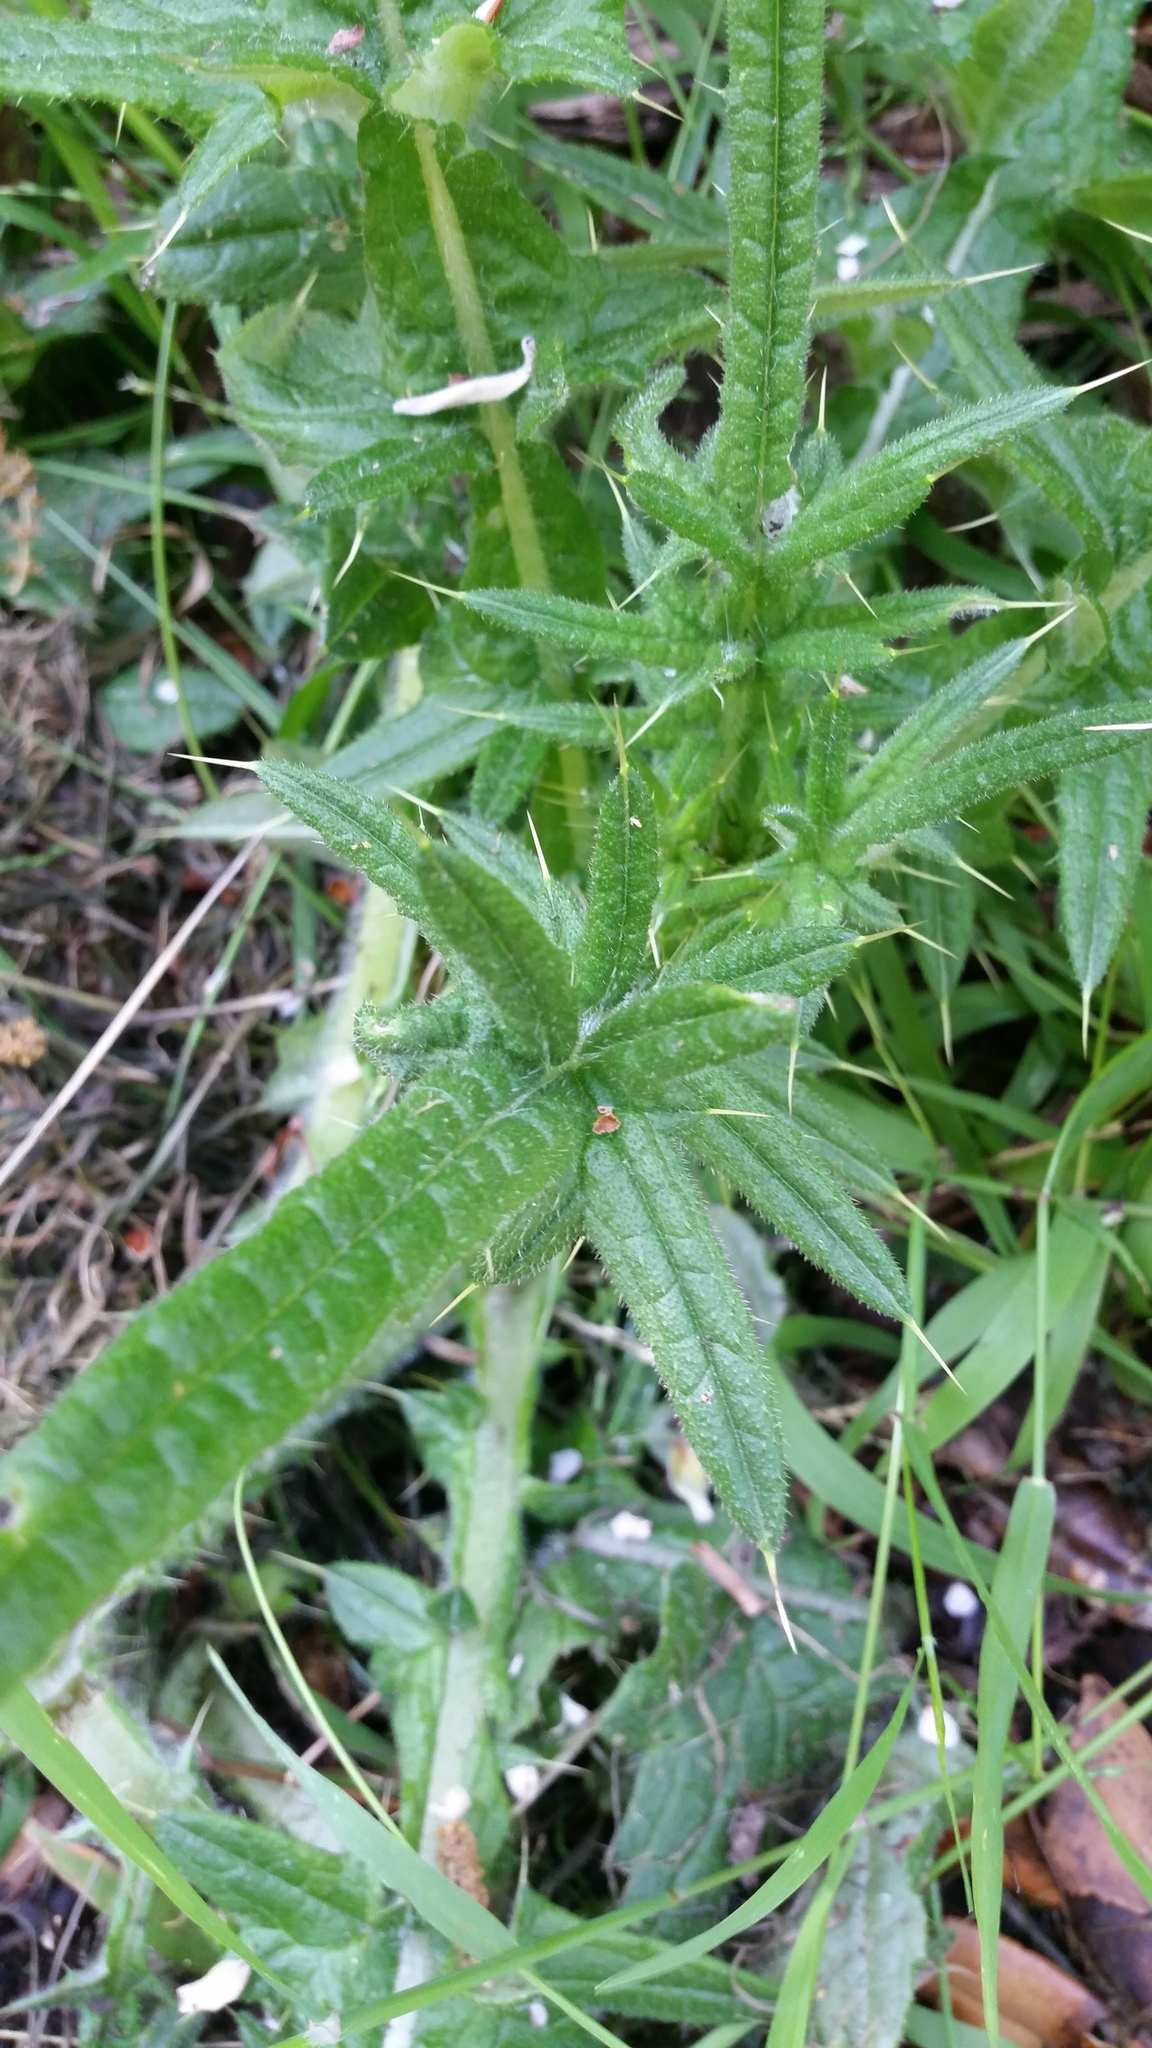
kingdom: Plantae
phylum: Tracheophyta
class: Magnoliopsida
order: Asterales
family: Asteraceae
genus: Cirsium
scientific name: Cirsium vulgare
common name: Bull thistle
